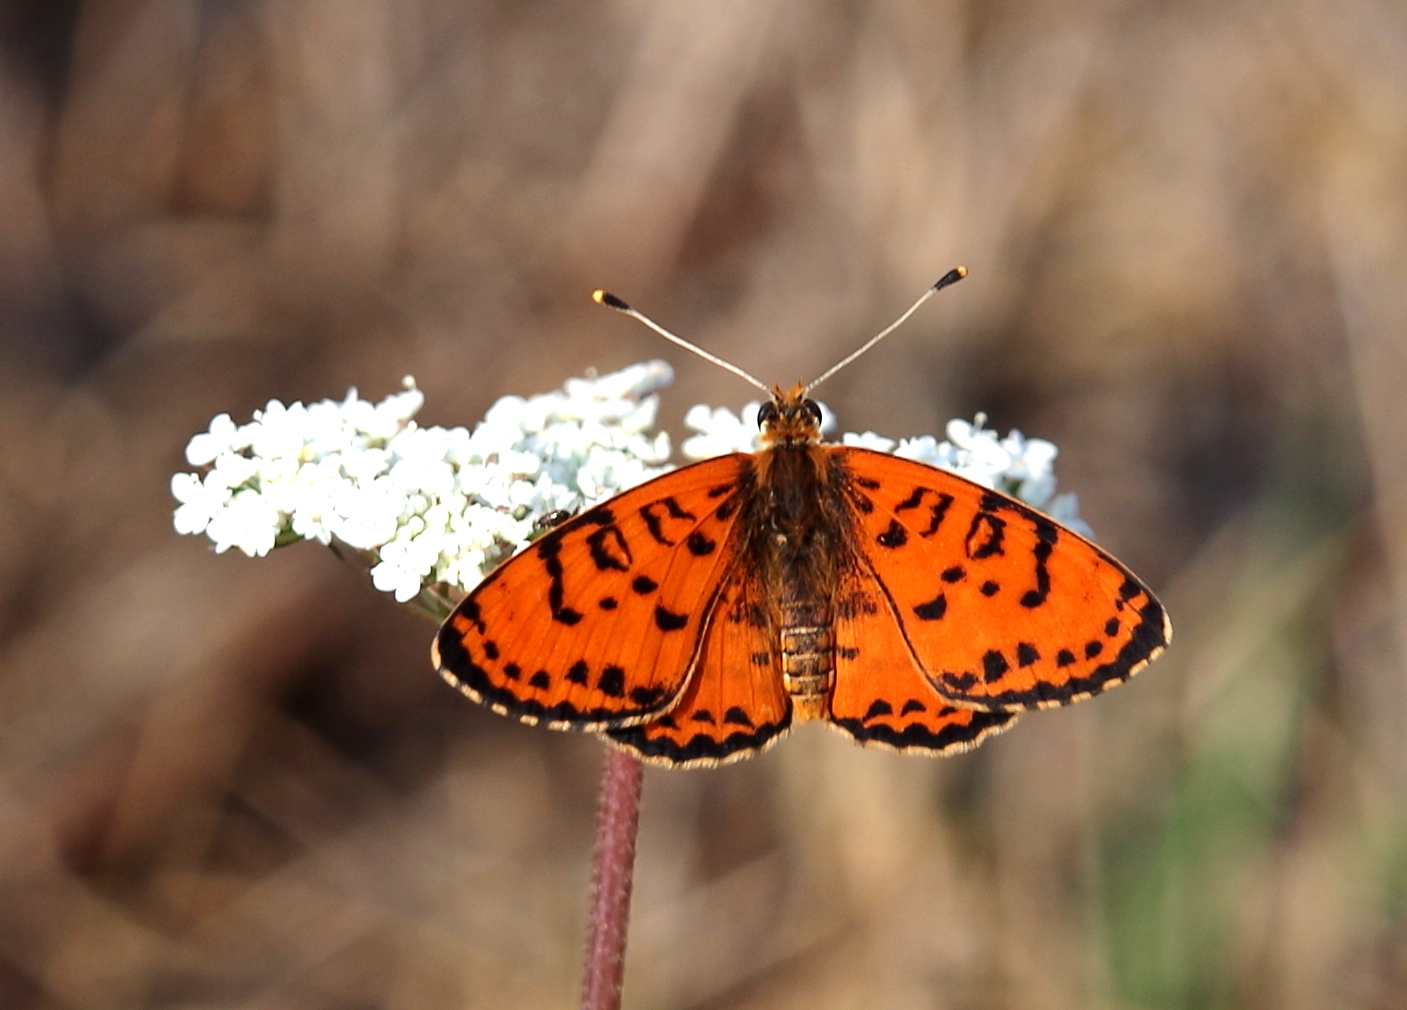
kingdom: Animalia
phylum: Arthropoda
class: Insecta
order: Lepidoptera
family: Nymphalidae
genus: Melitaea
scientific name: Melitaea didyma
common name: Spotted fritillary
